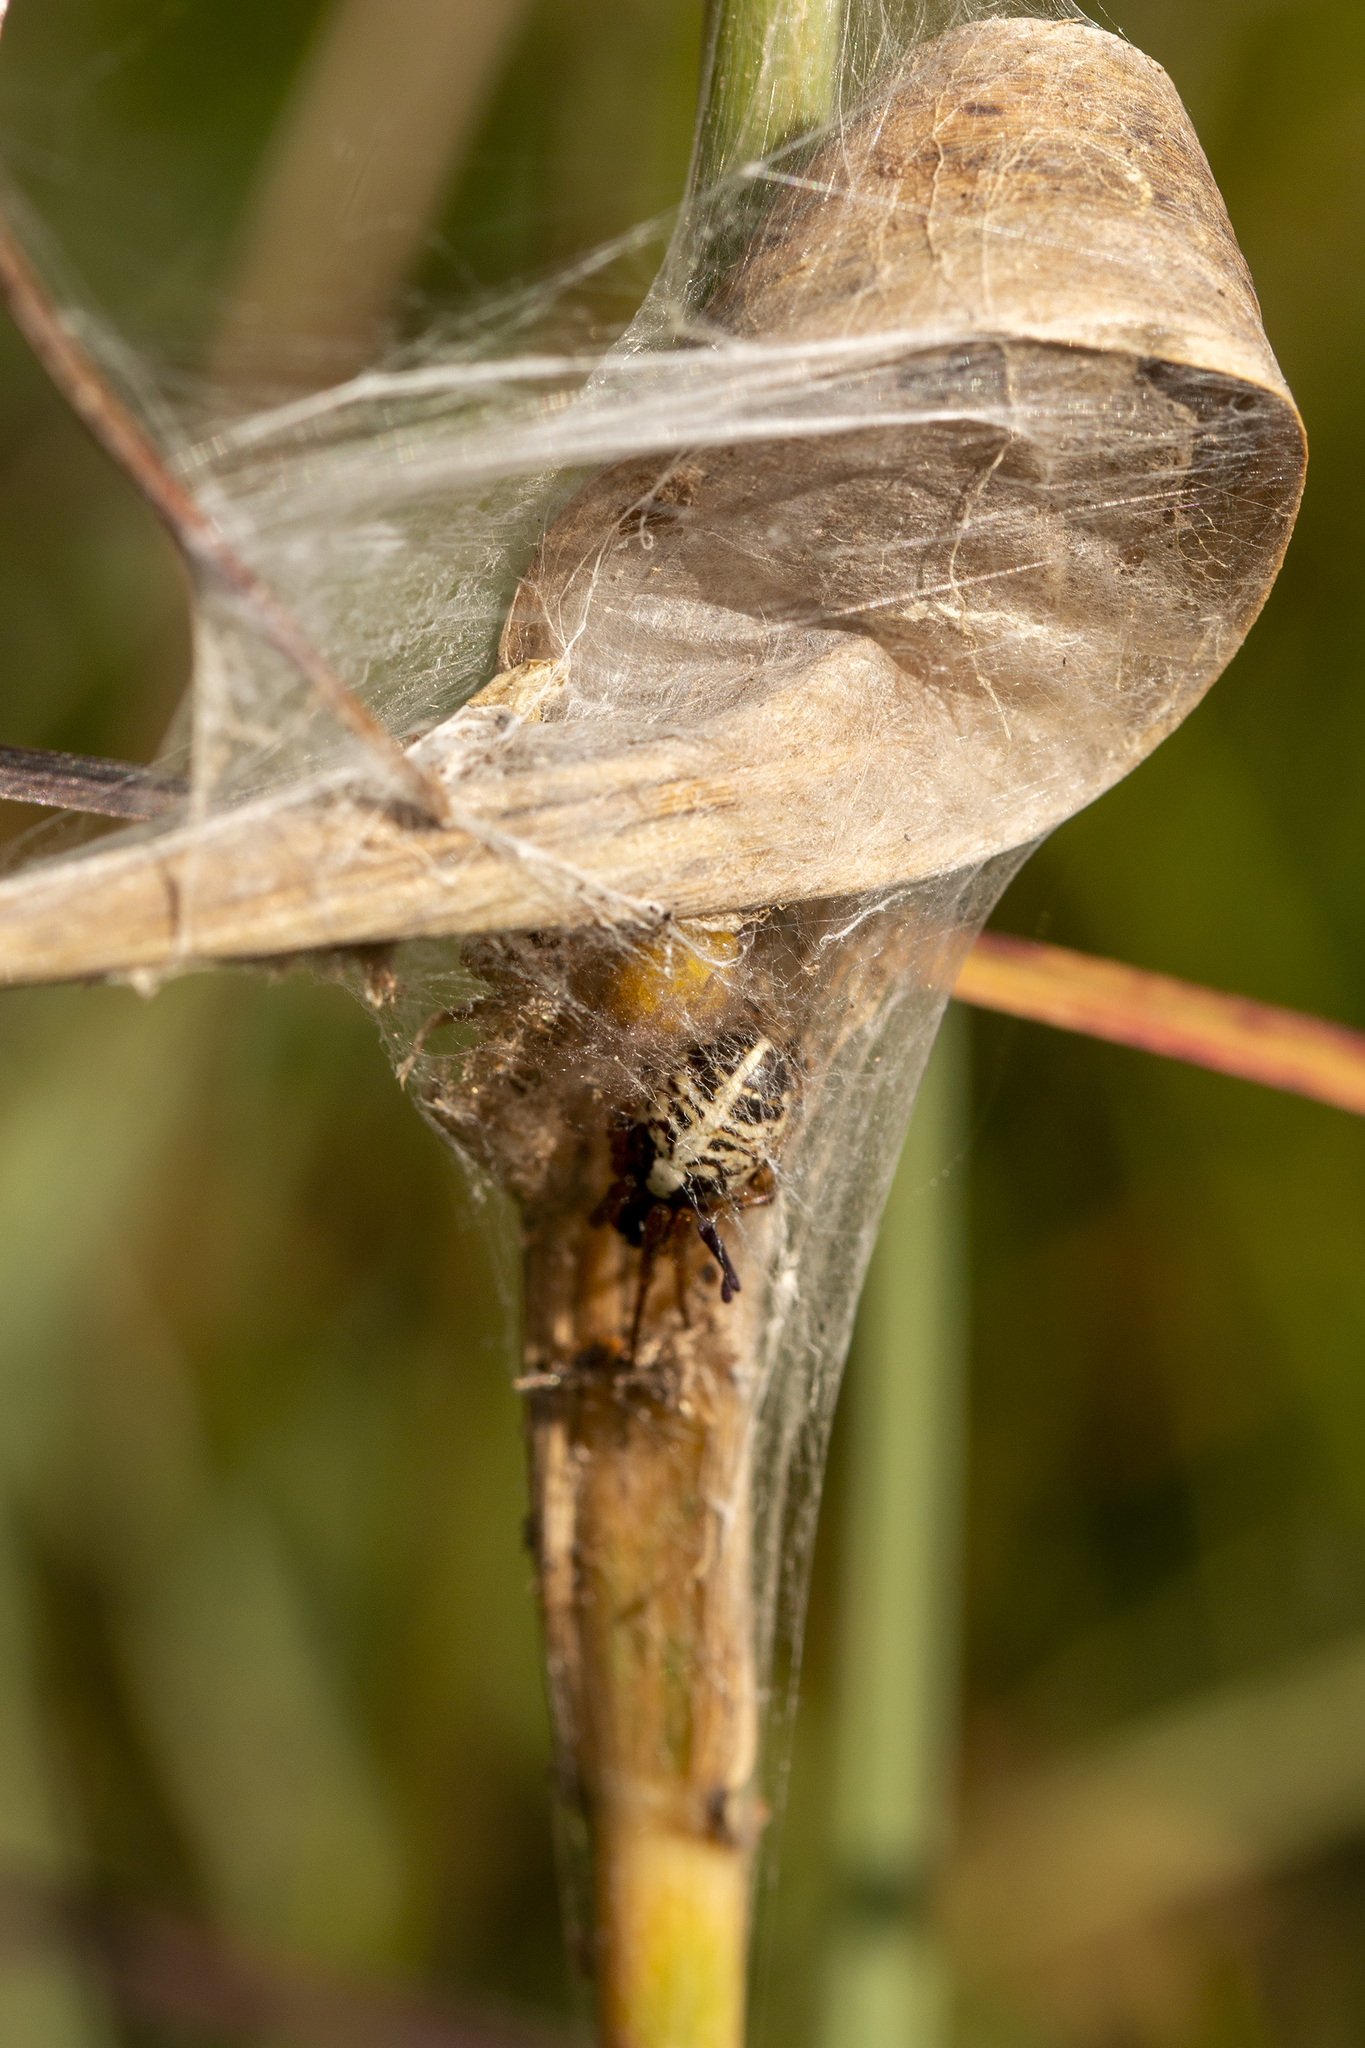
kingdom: Animalia
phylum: Arthropoda
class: Arachnida
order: Araneae
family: Araneidae
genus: Singa
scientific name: Singa hamata
